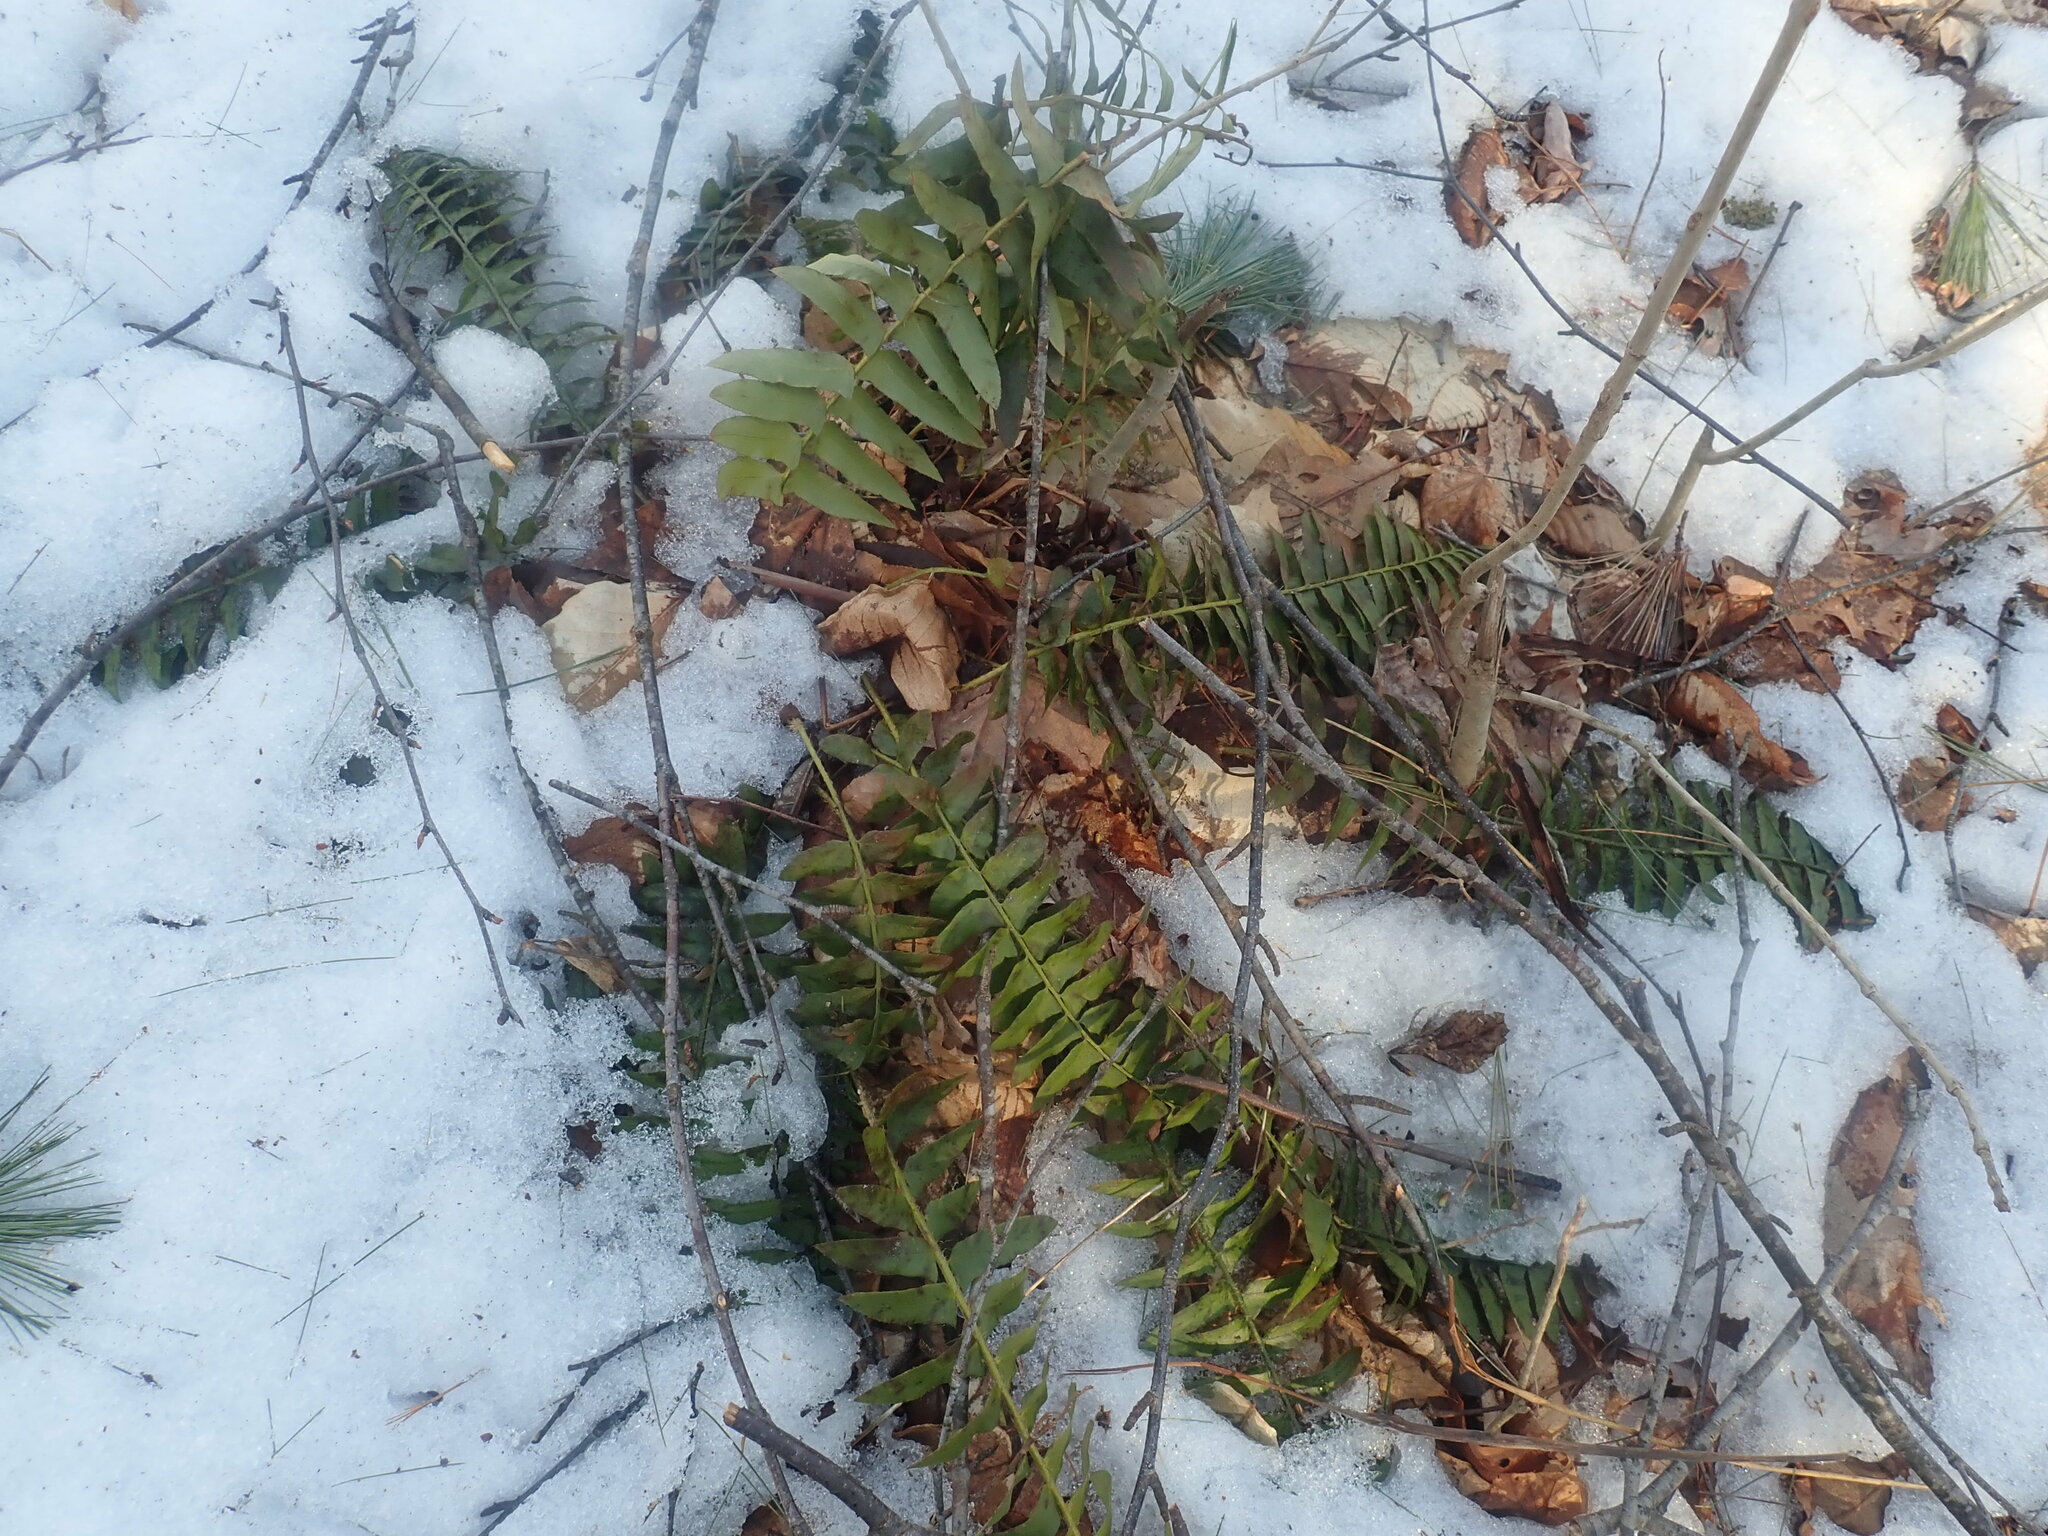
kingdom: Plantae
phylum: Tracheophyta
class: Polypodiopsida
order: Polypodiales
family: Dryopteridaceae
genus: Polystichum
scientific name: Polystichum acrostichoides
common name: Christmas fern
